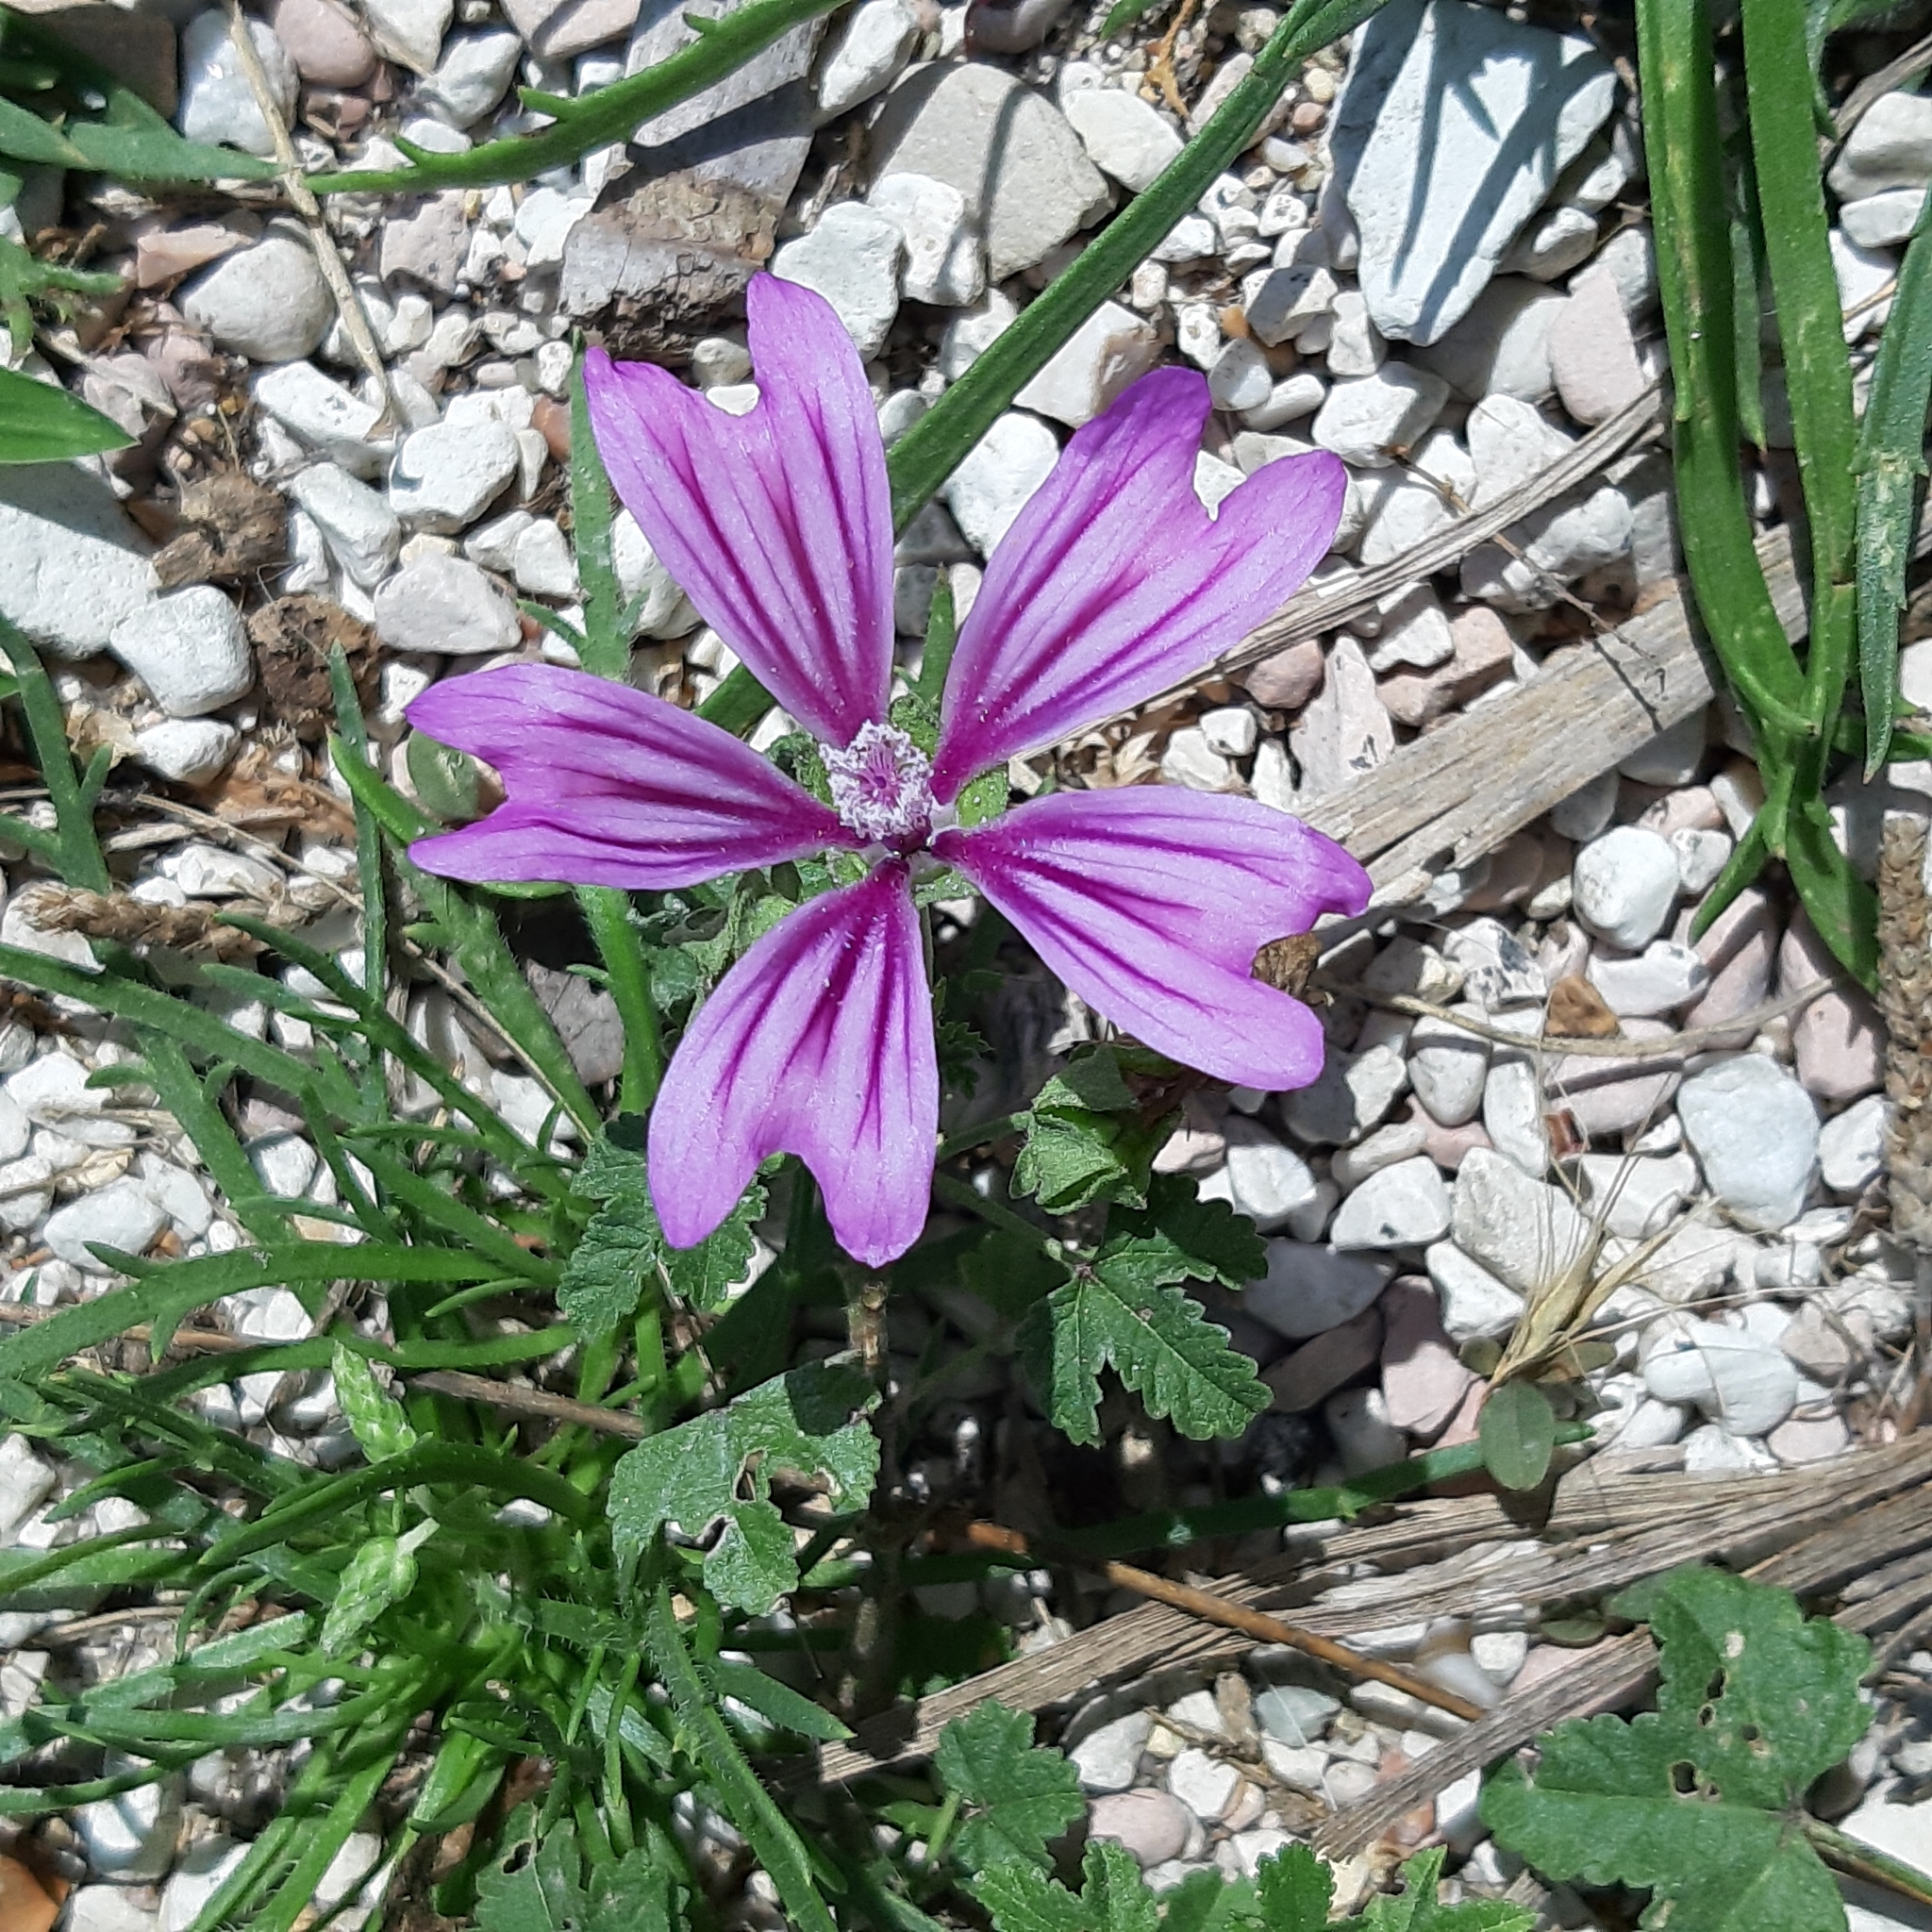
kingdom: Plantae
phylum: Tracheophyta
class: Magnoliopsida
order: Malvales
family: Malvaceae
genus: Malva
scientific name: Malva sylvestris
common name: Common mallow
